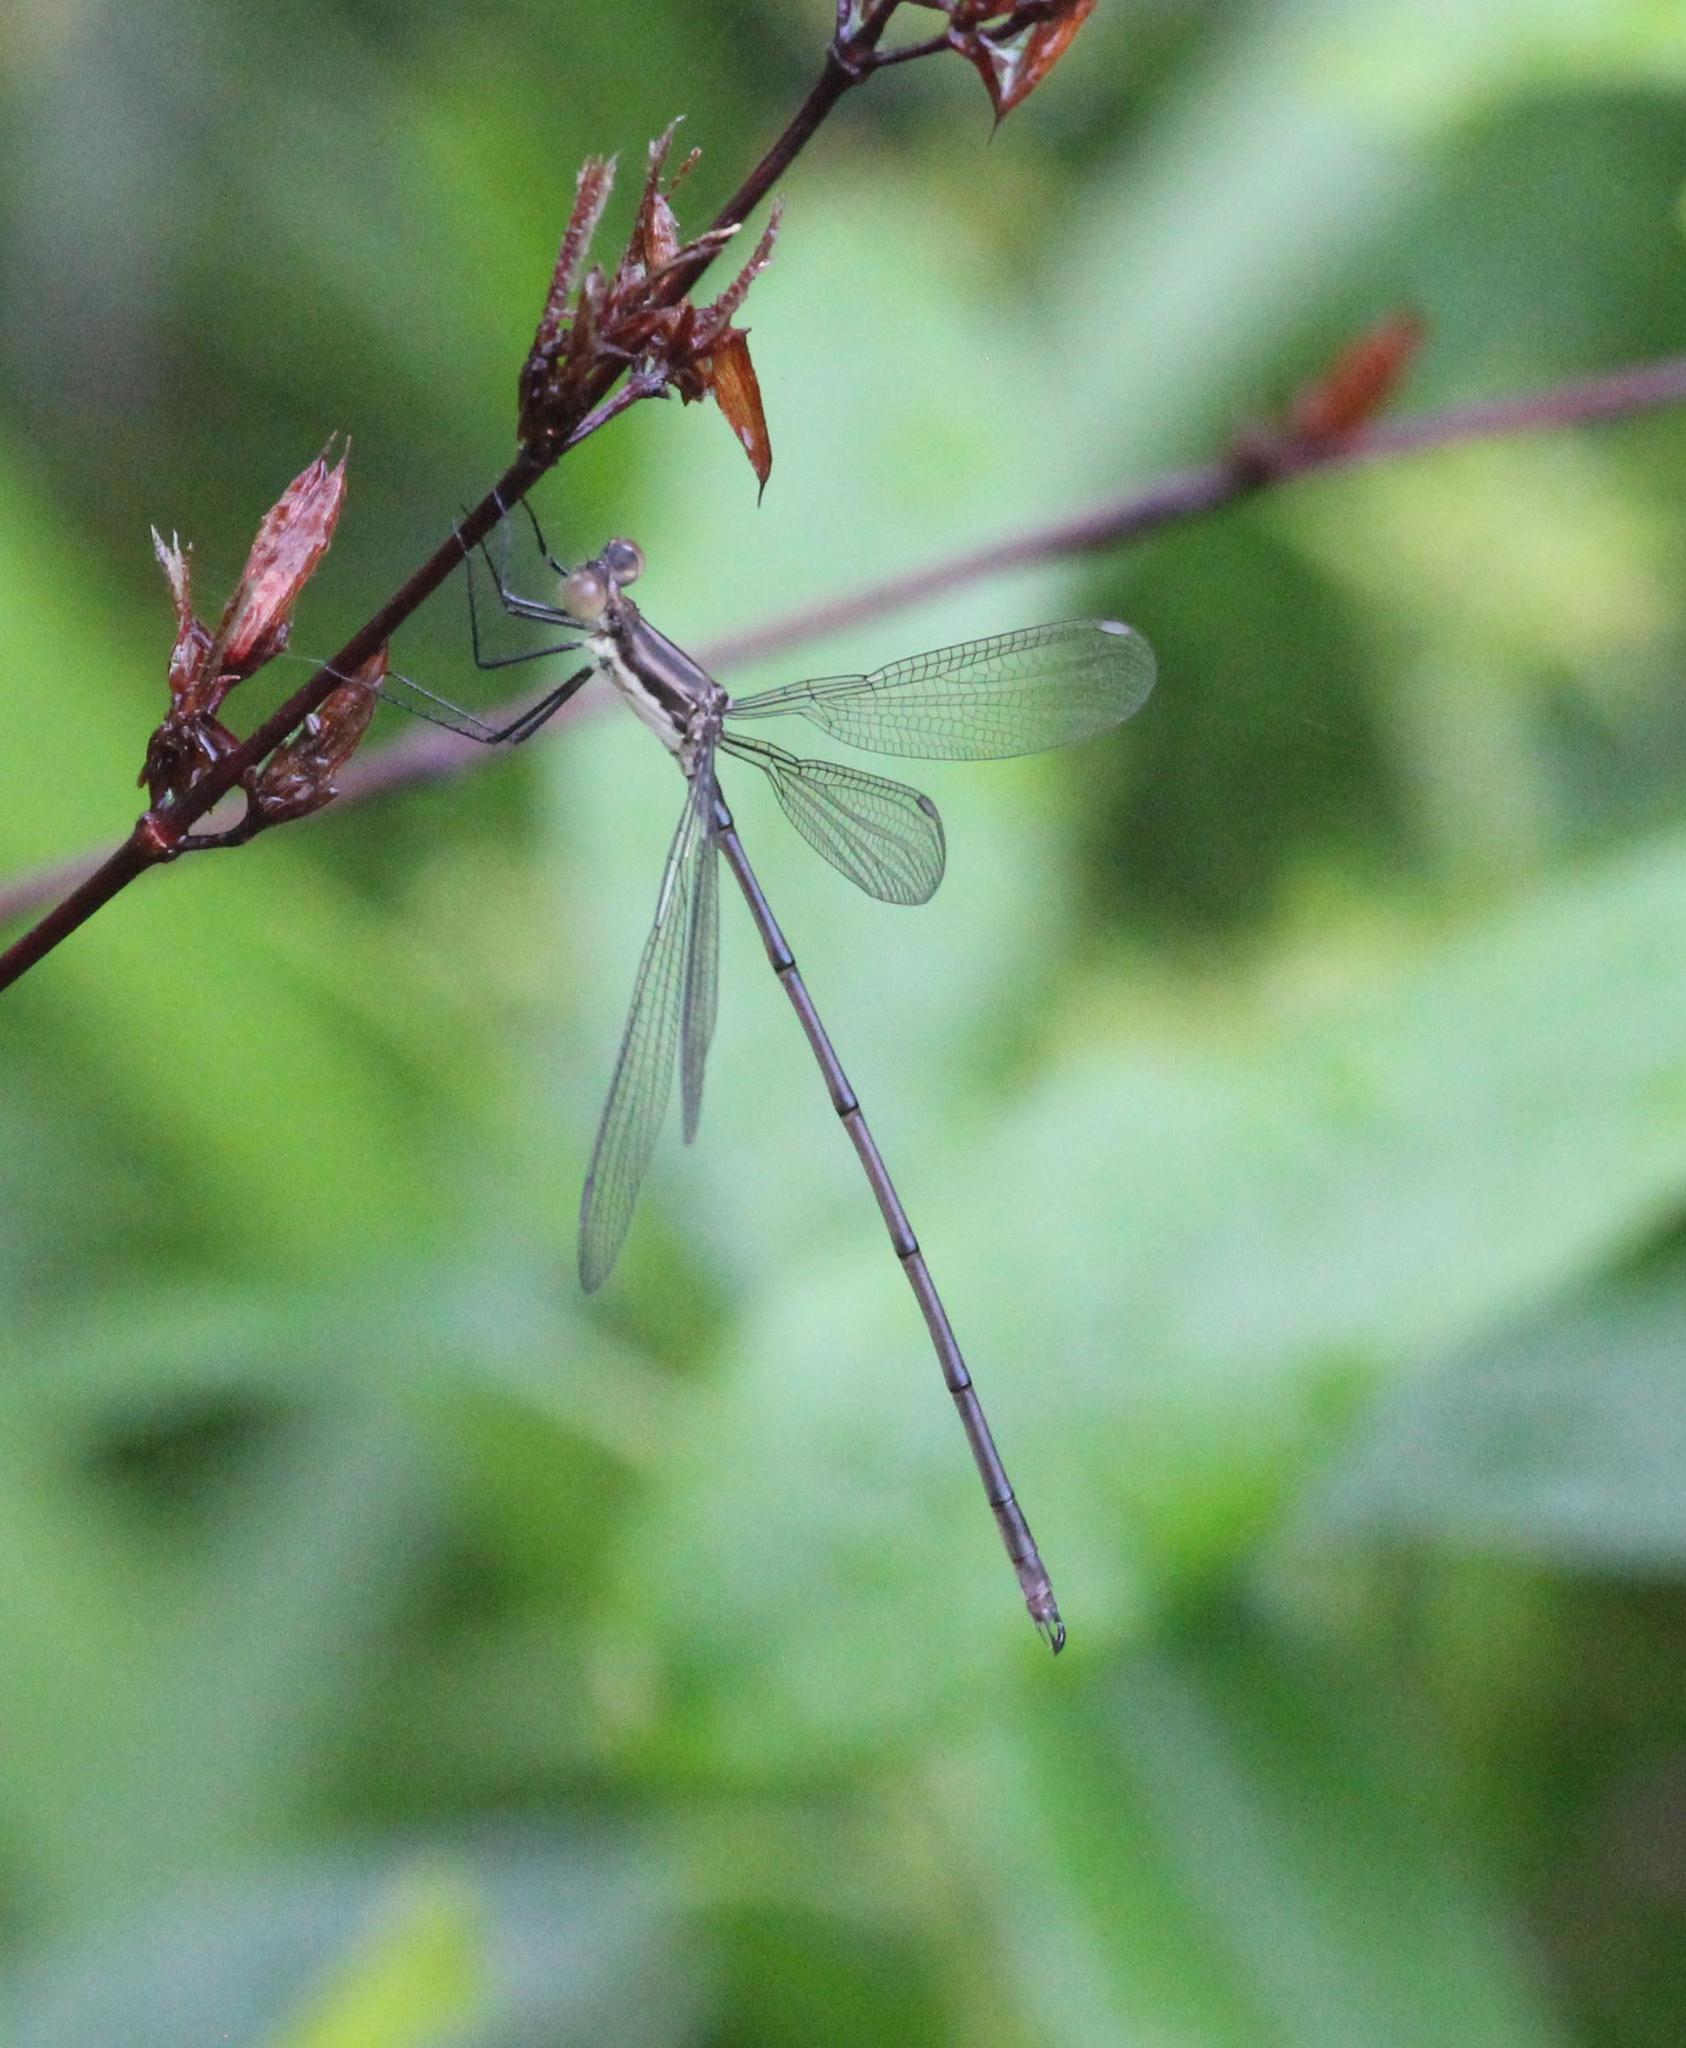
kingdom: Animalia
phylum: Arthropoda
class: Insecta
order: Odonata
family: Lestidae
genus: Lestes
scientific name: Lestes vigilax
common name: Swamp spreadwing
